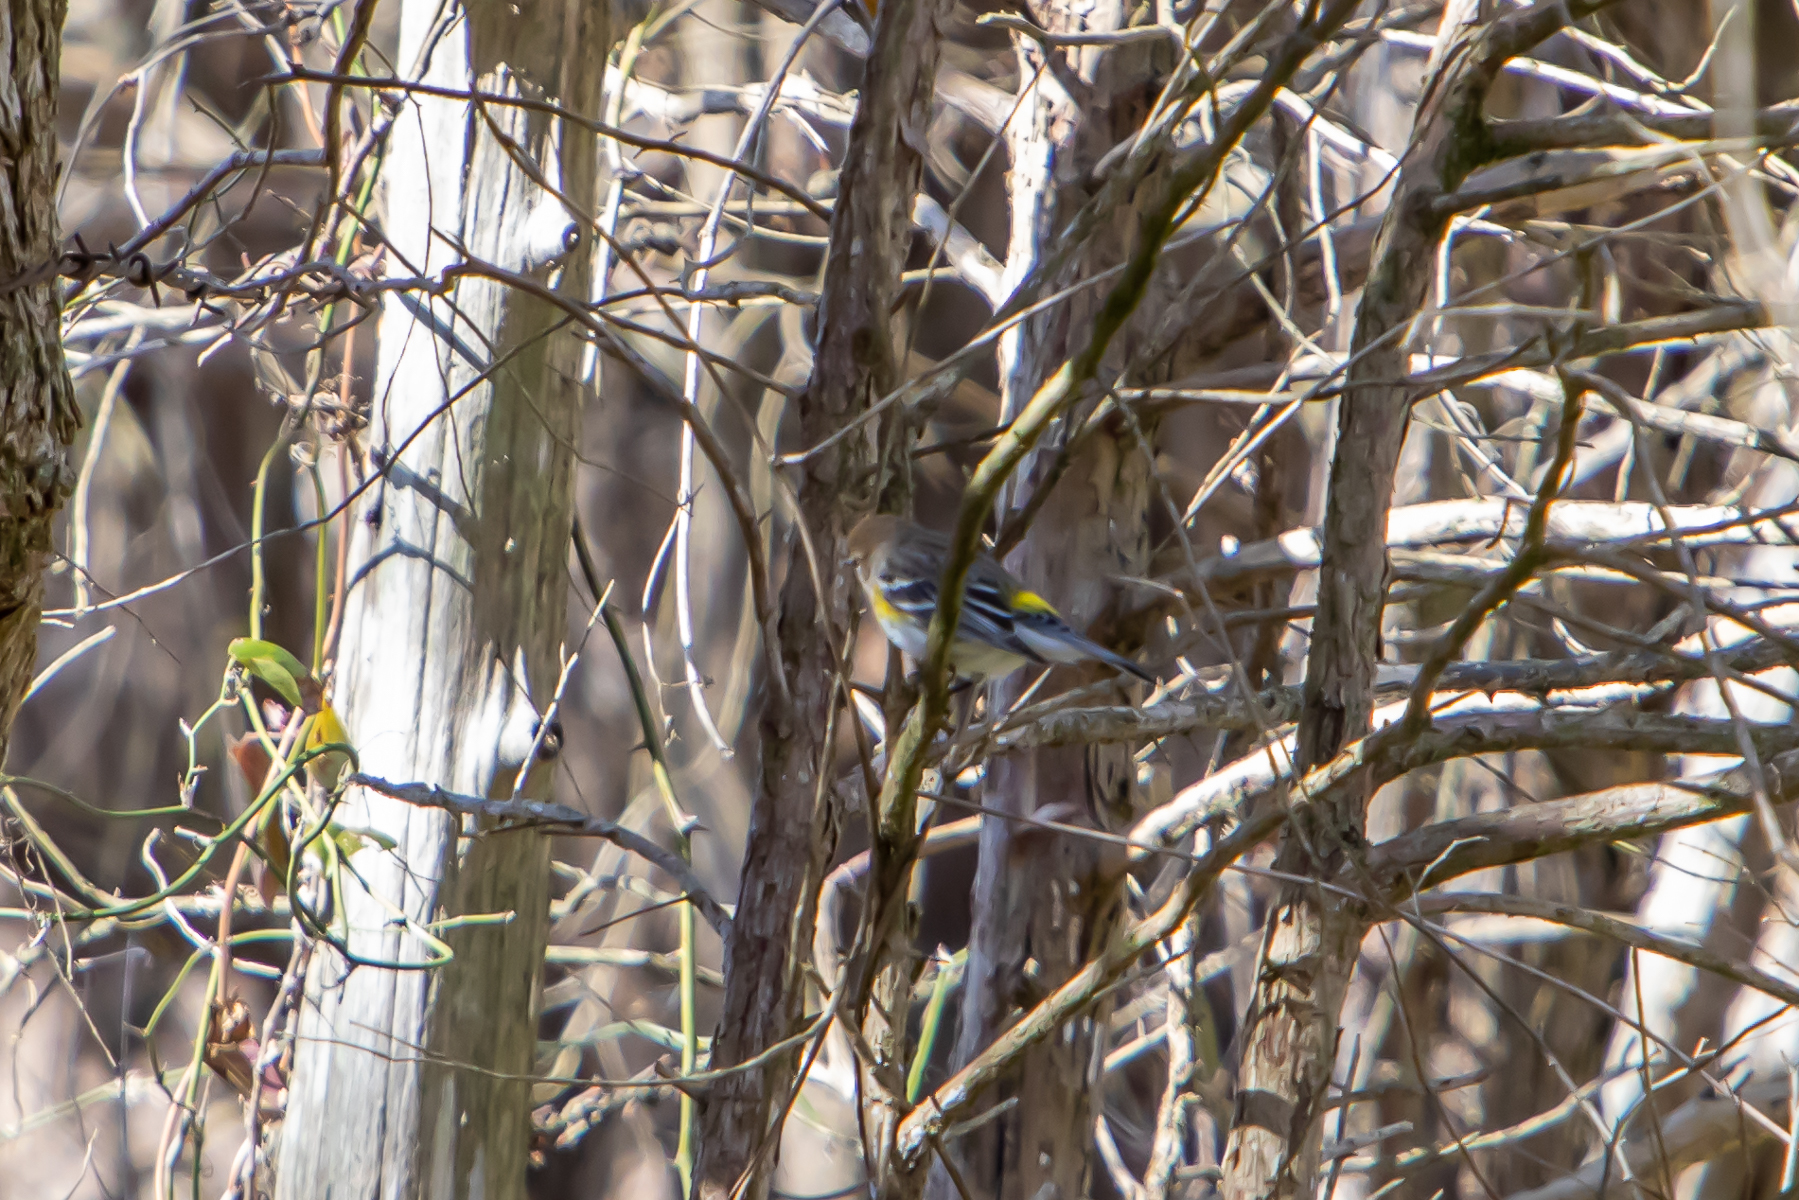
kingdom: Animalia
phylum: Chordata
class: Aves
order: Passeriformes
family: Parulidae
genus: Setophaga
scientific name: Setophaga coronata
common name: Myrtle warbler
